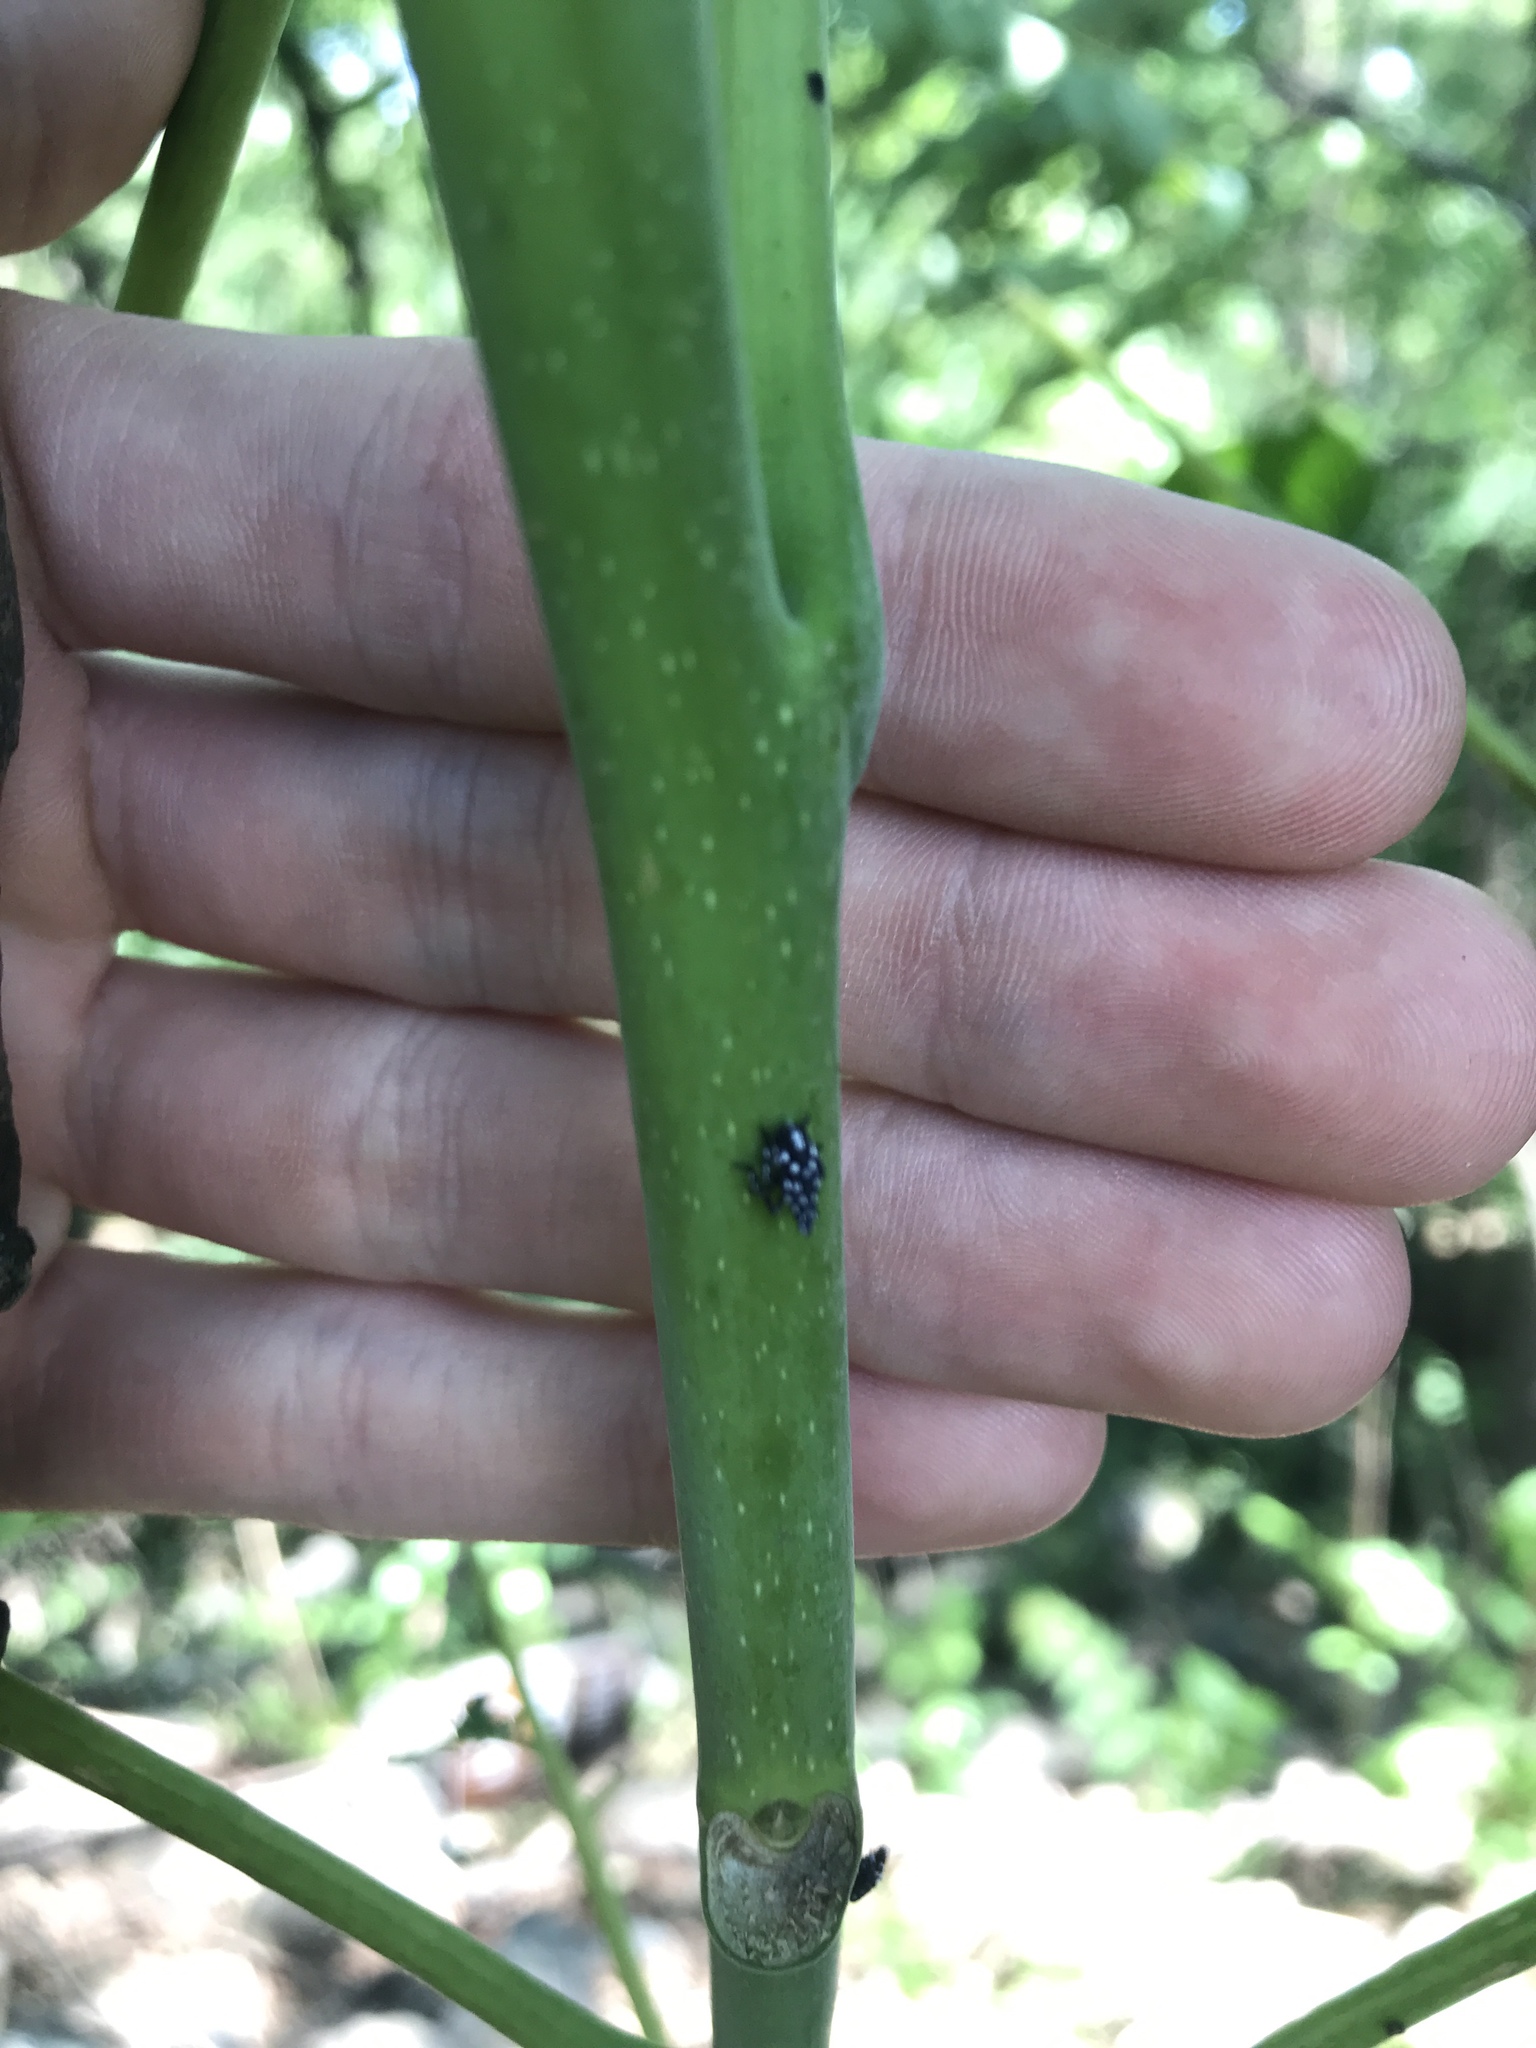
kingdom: Animalia
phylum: Arthropoda
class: Insecta
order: Hemiptera
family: Fulgoridae
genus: Lycorma
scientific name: Lycorma delicatula
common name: Spotted lanternfly
